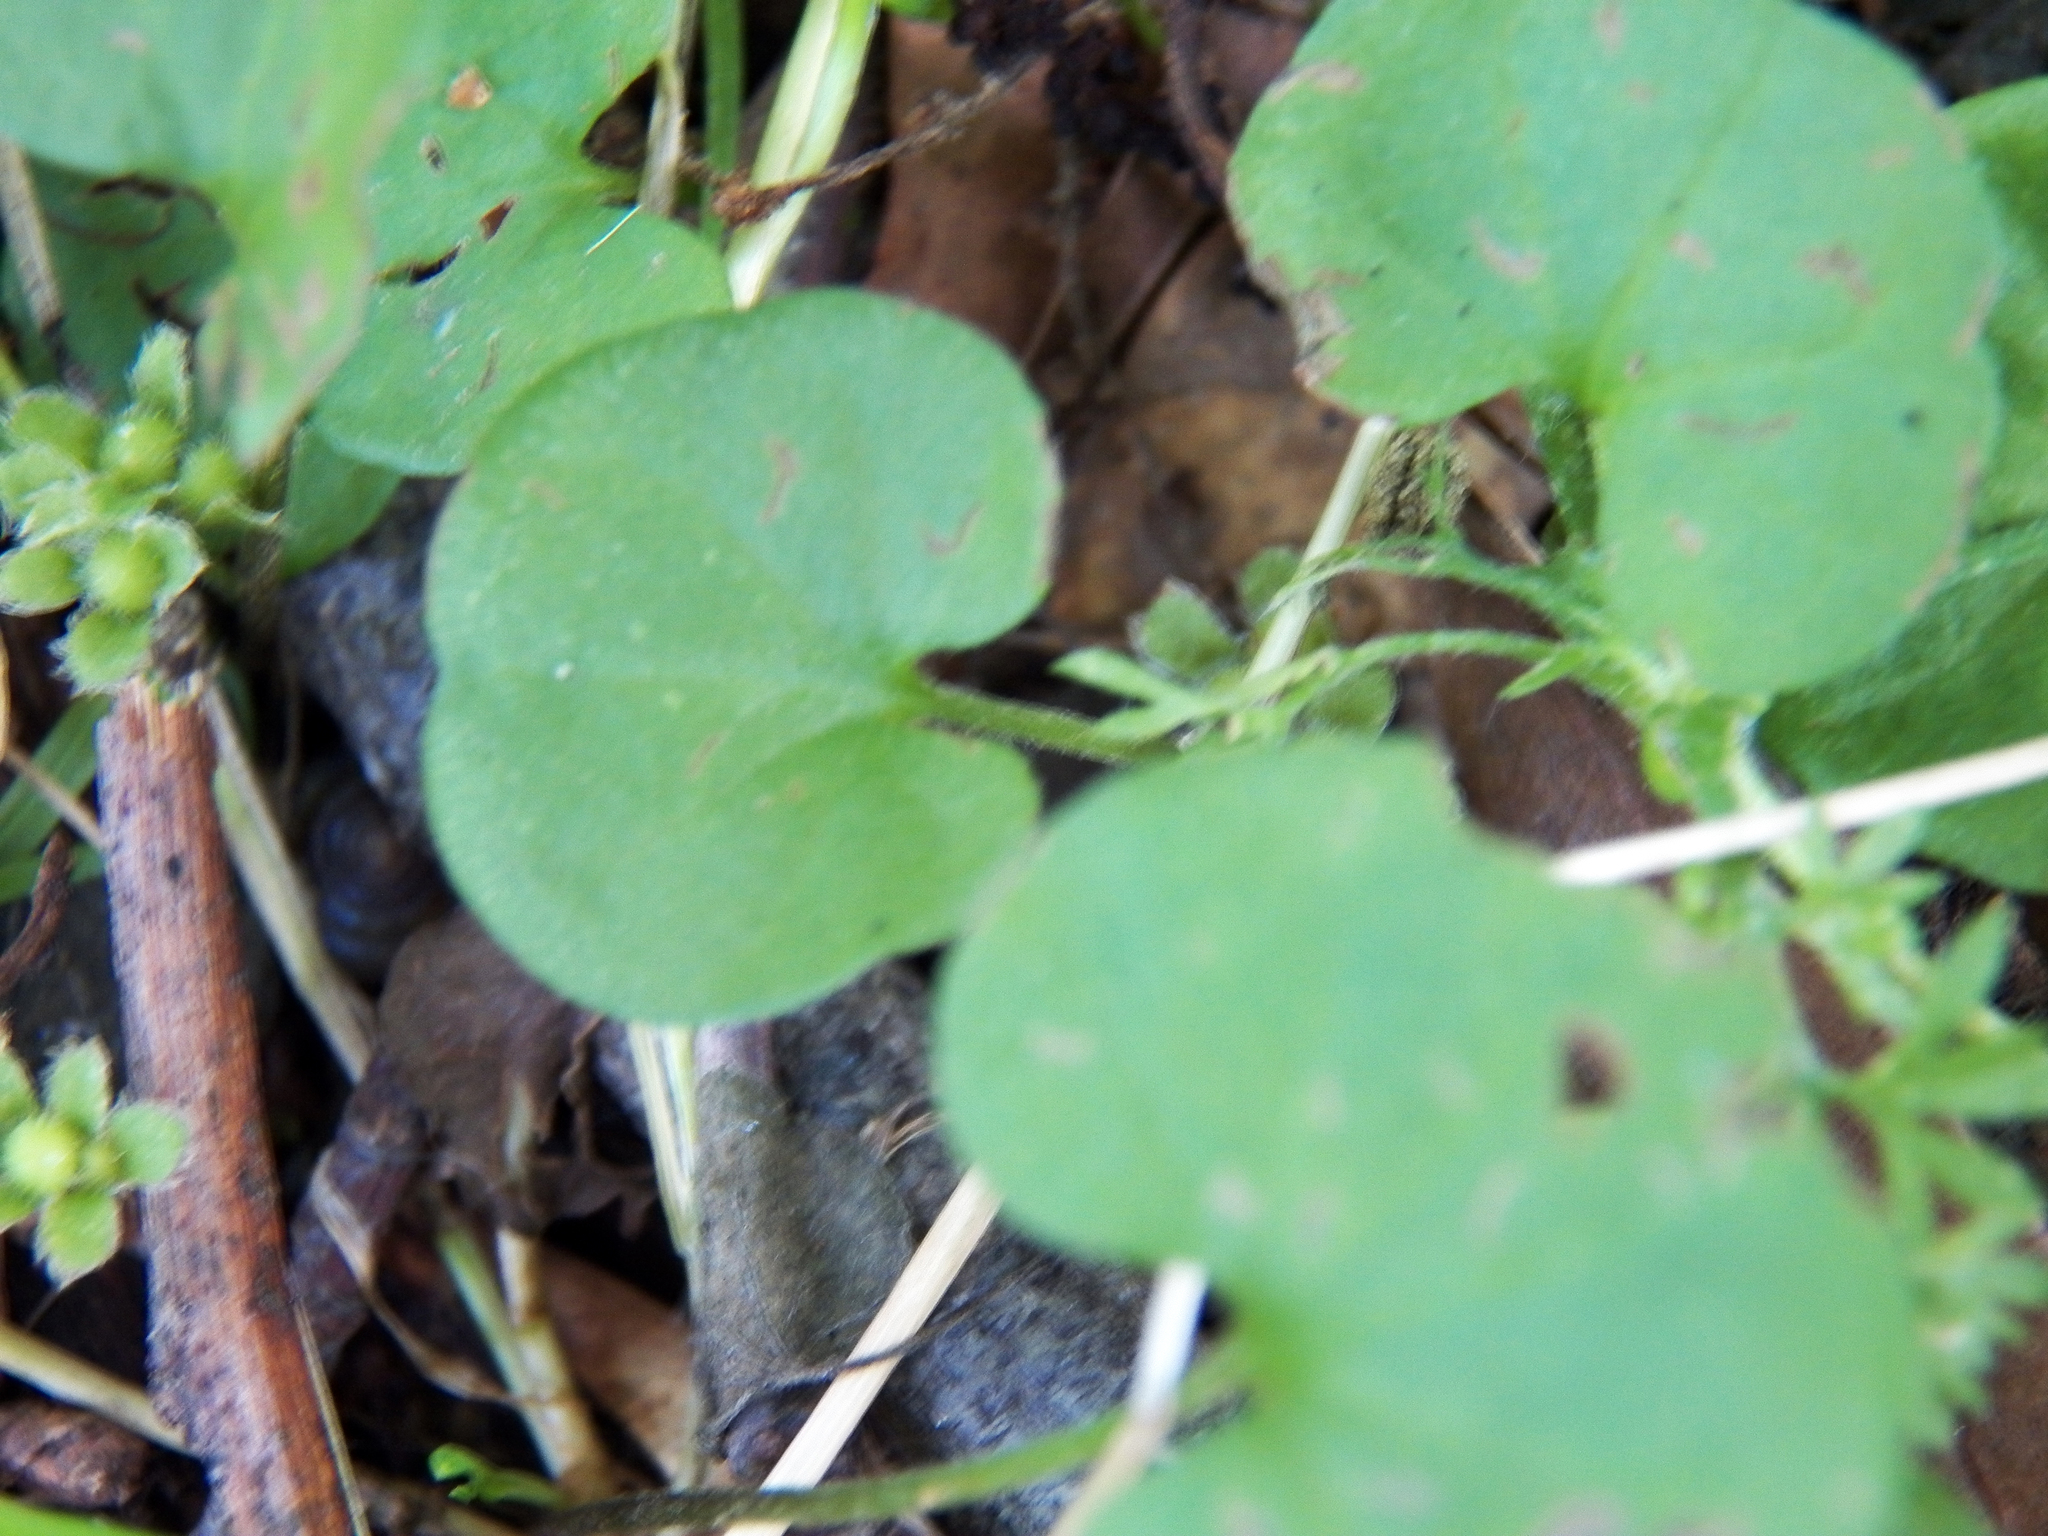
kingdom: Plantae
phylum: Tracheophyta
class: Magnoliopsida
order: Solanales
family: Convolvulaceae
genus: Dichondra
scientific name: Dichondra carolinensis
